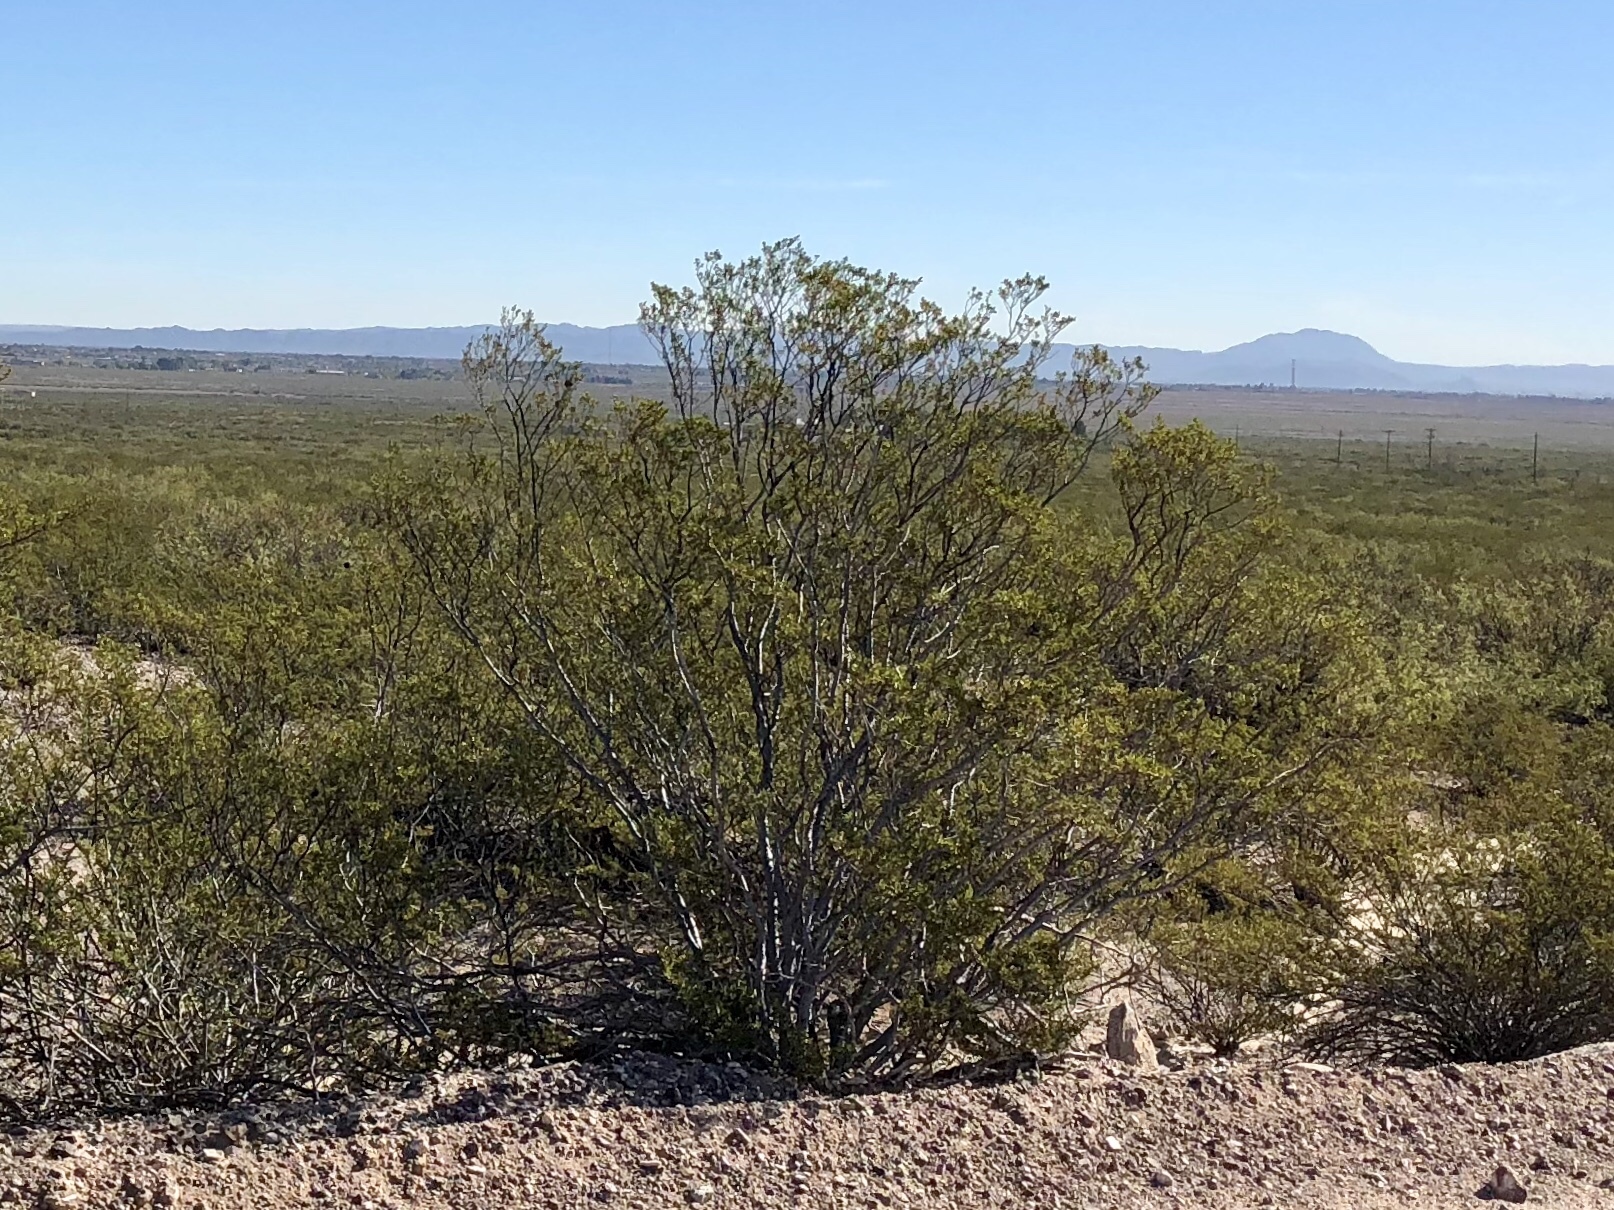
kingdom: Plantae
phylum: Tracheophyta
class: Magnoliopsida
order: Zygophyllales
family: Zygophyllaceae
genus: Larrea
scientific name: Larrea tridentata
